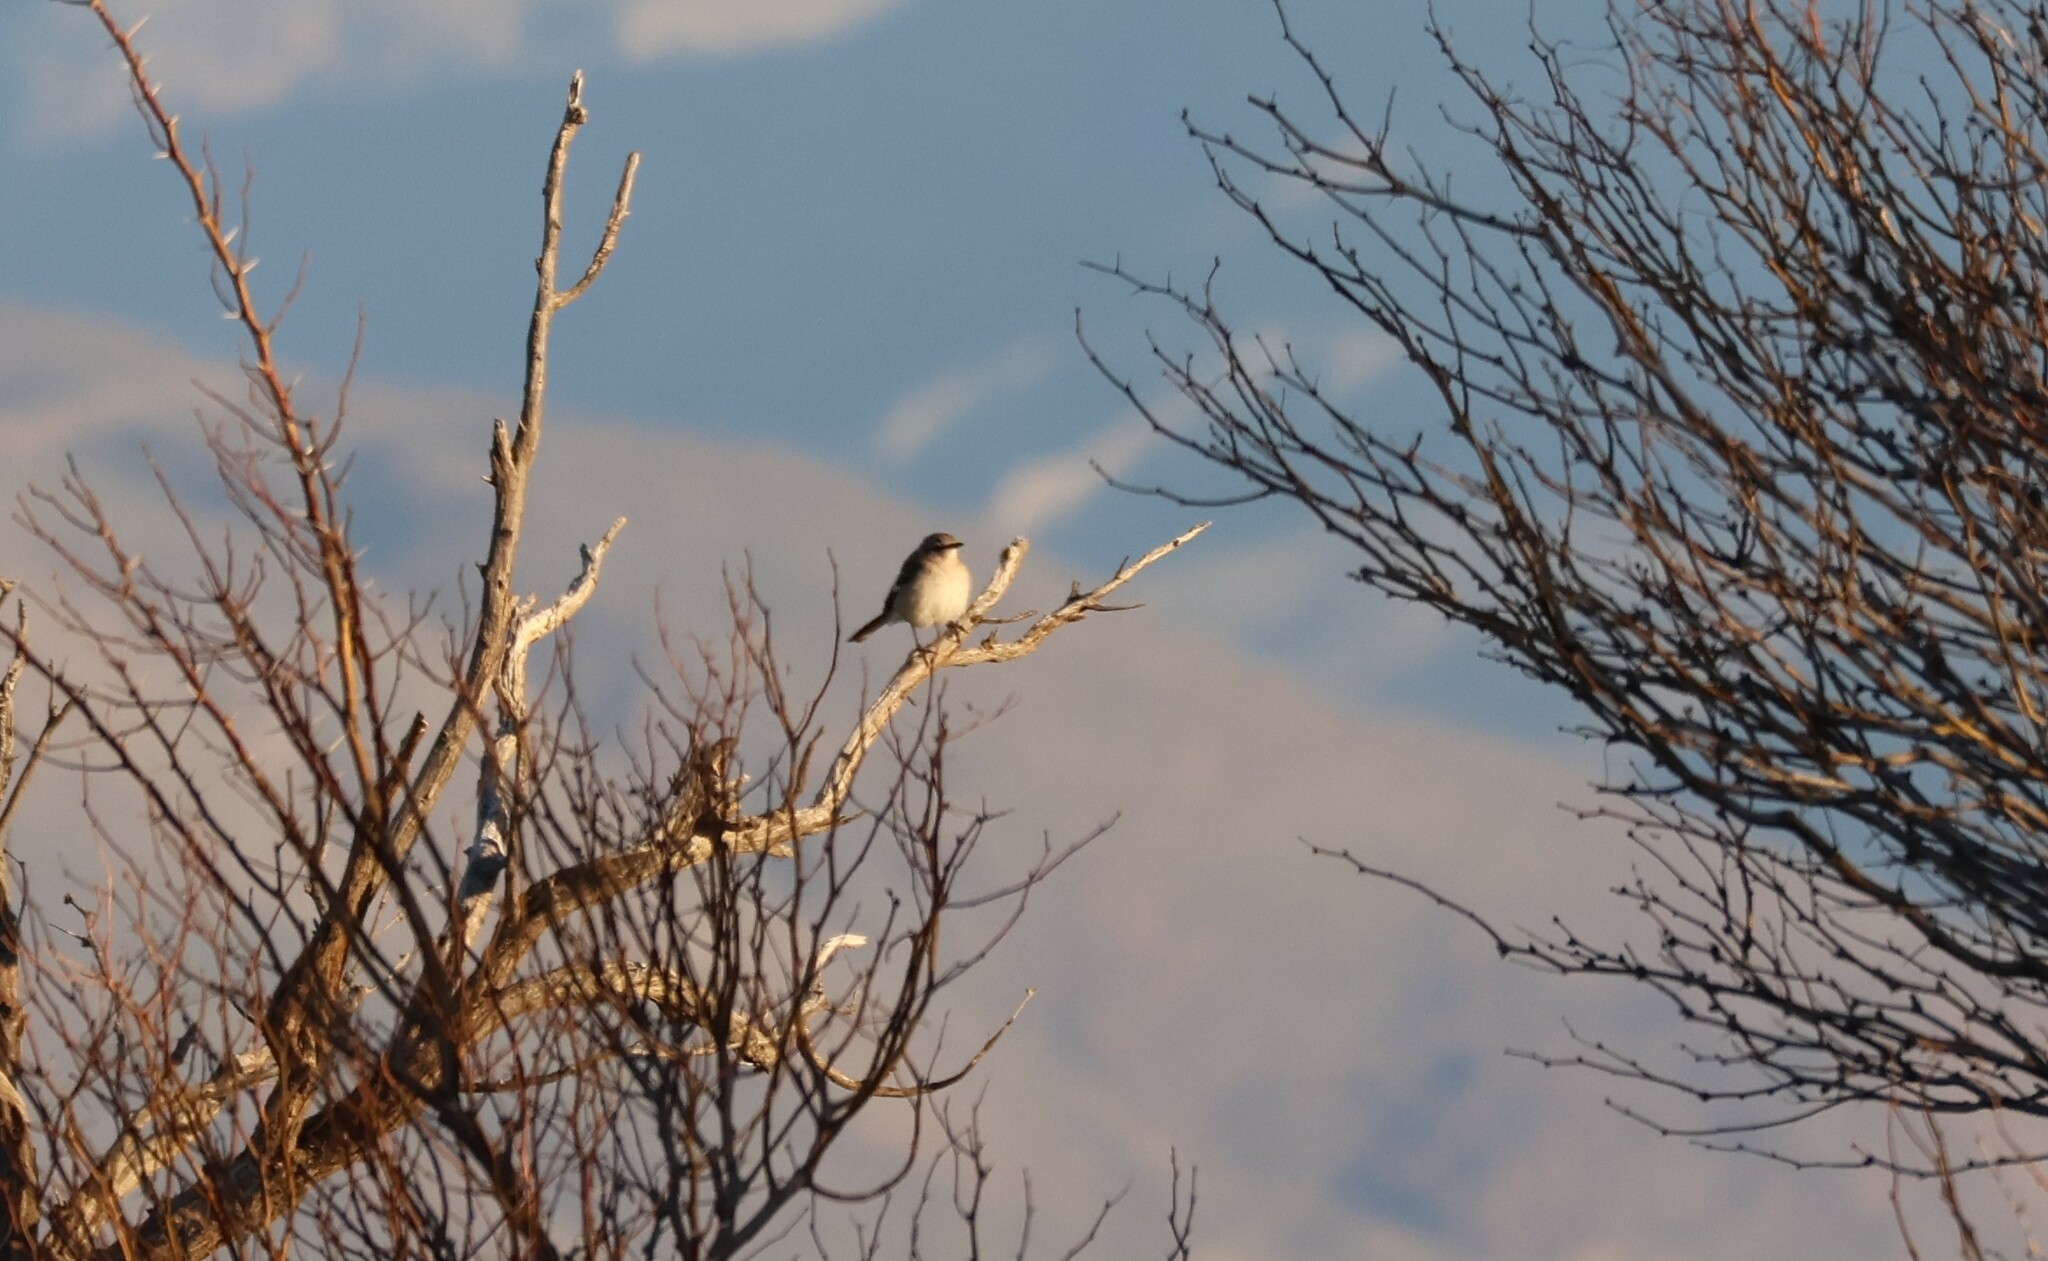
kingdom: Animalia
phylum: Chordata
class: Aves
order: Passeriformes
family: Mimidae
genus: Mimus
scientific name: Mimus polyglottos
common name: Northern mockingbird
